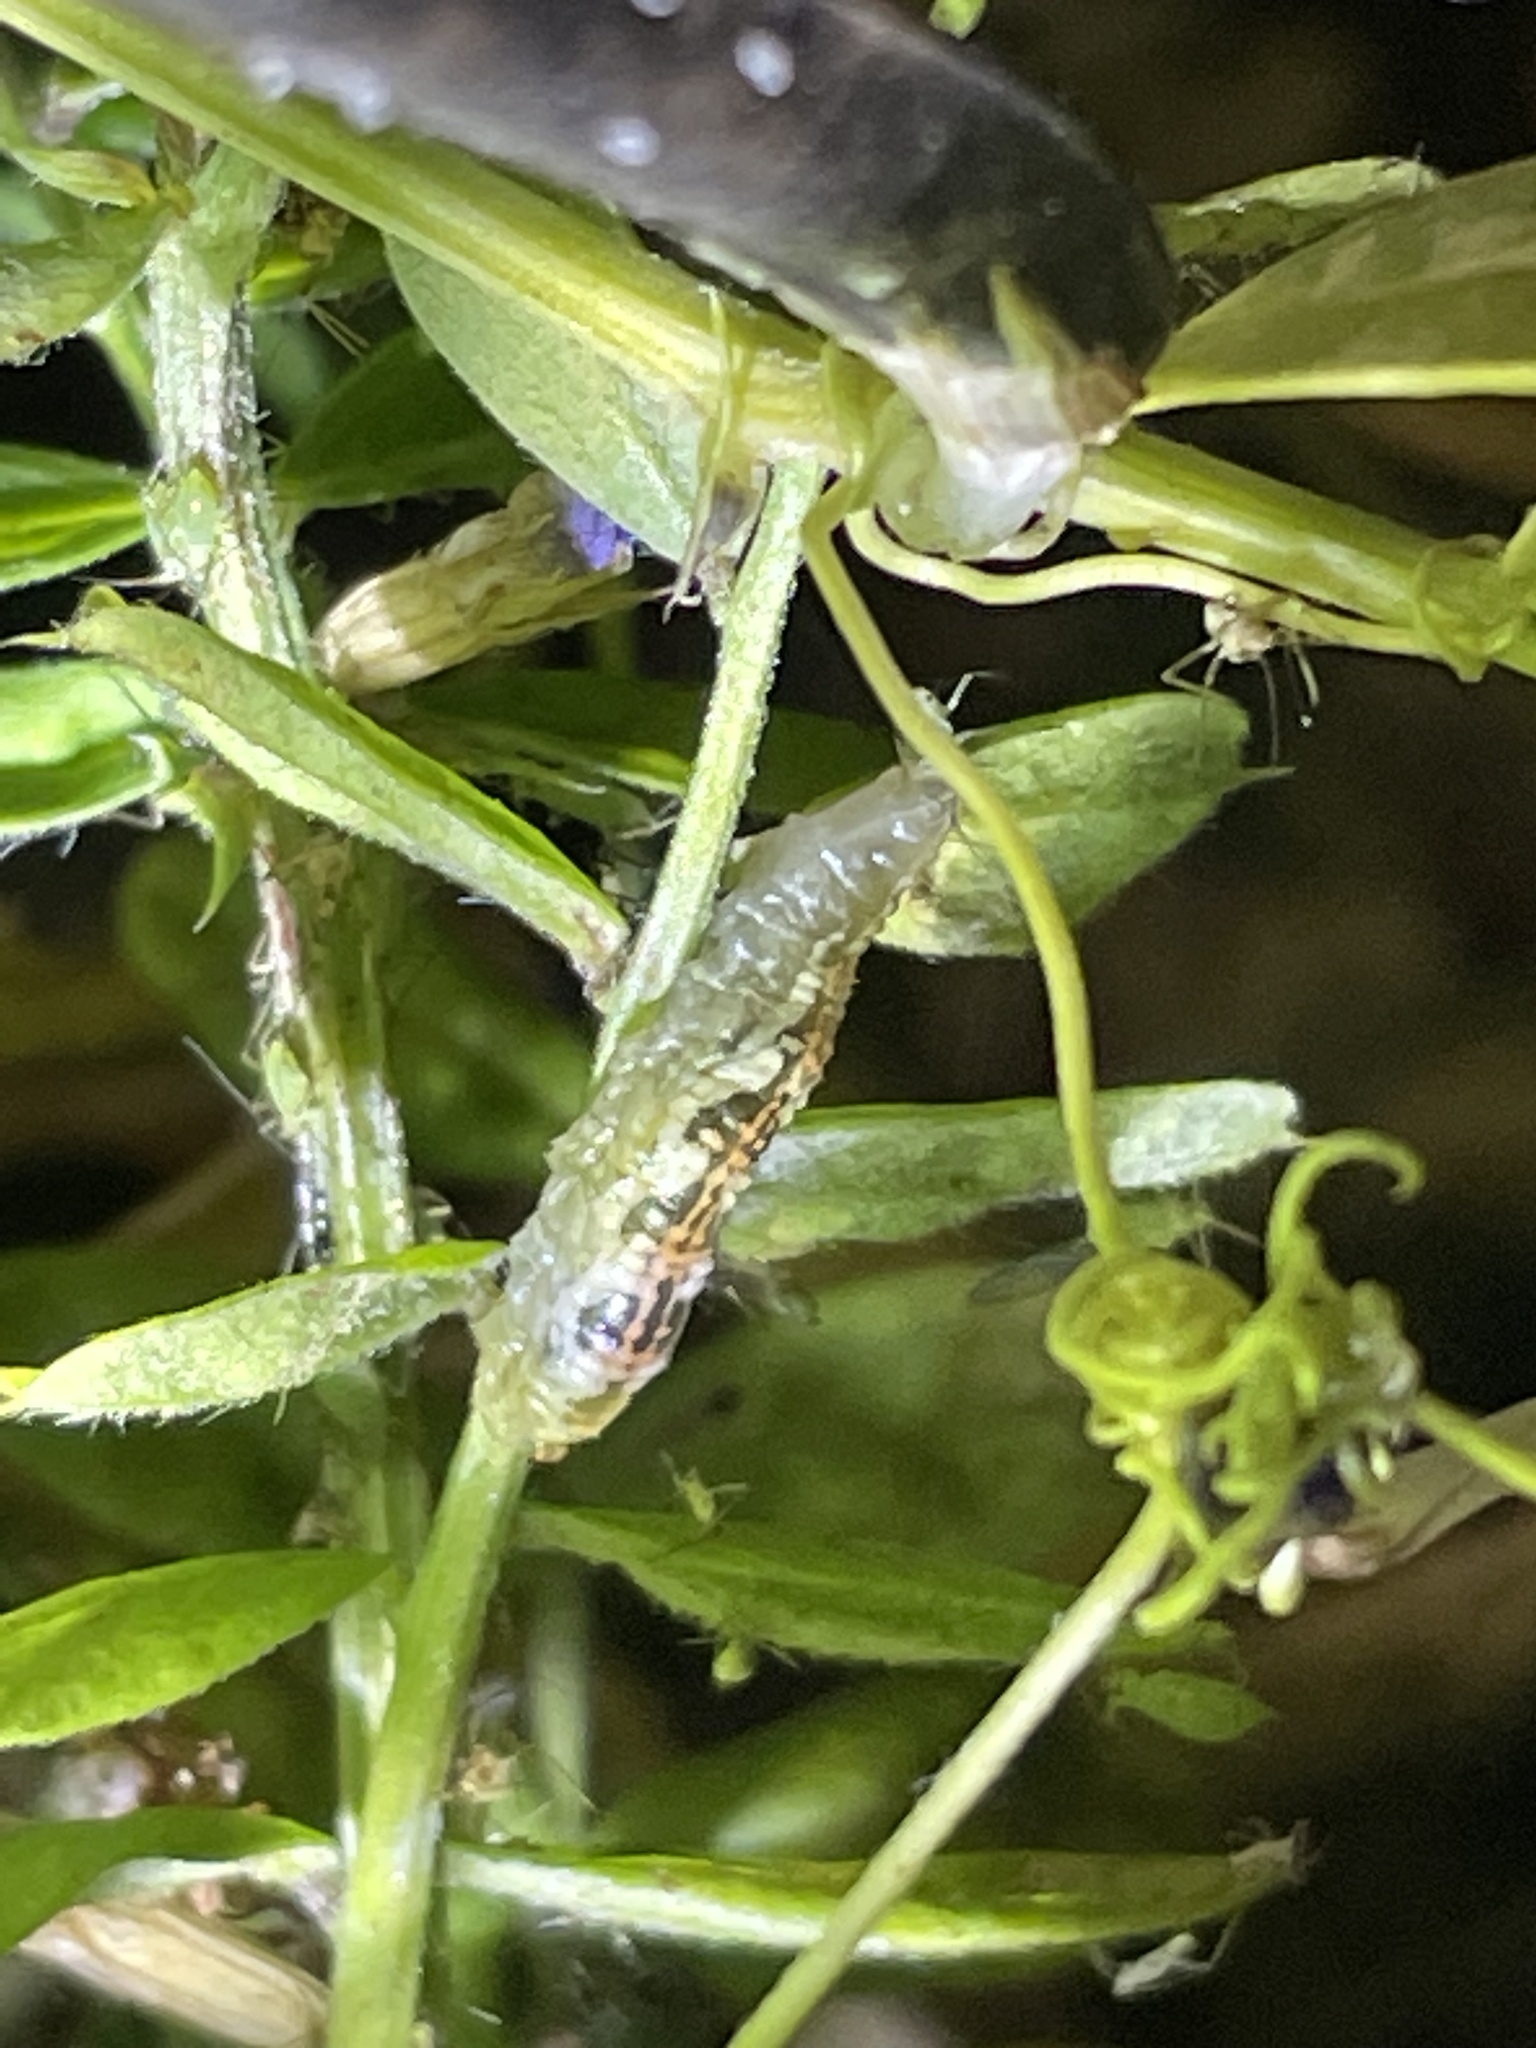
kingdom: Animalia
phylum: Arthropoda
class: Insecta
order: Diptera
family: Syrphidae
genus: Syrphus
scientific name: Syrphus
